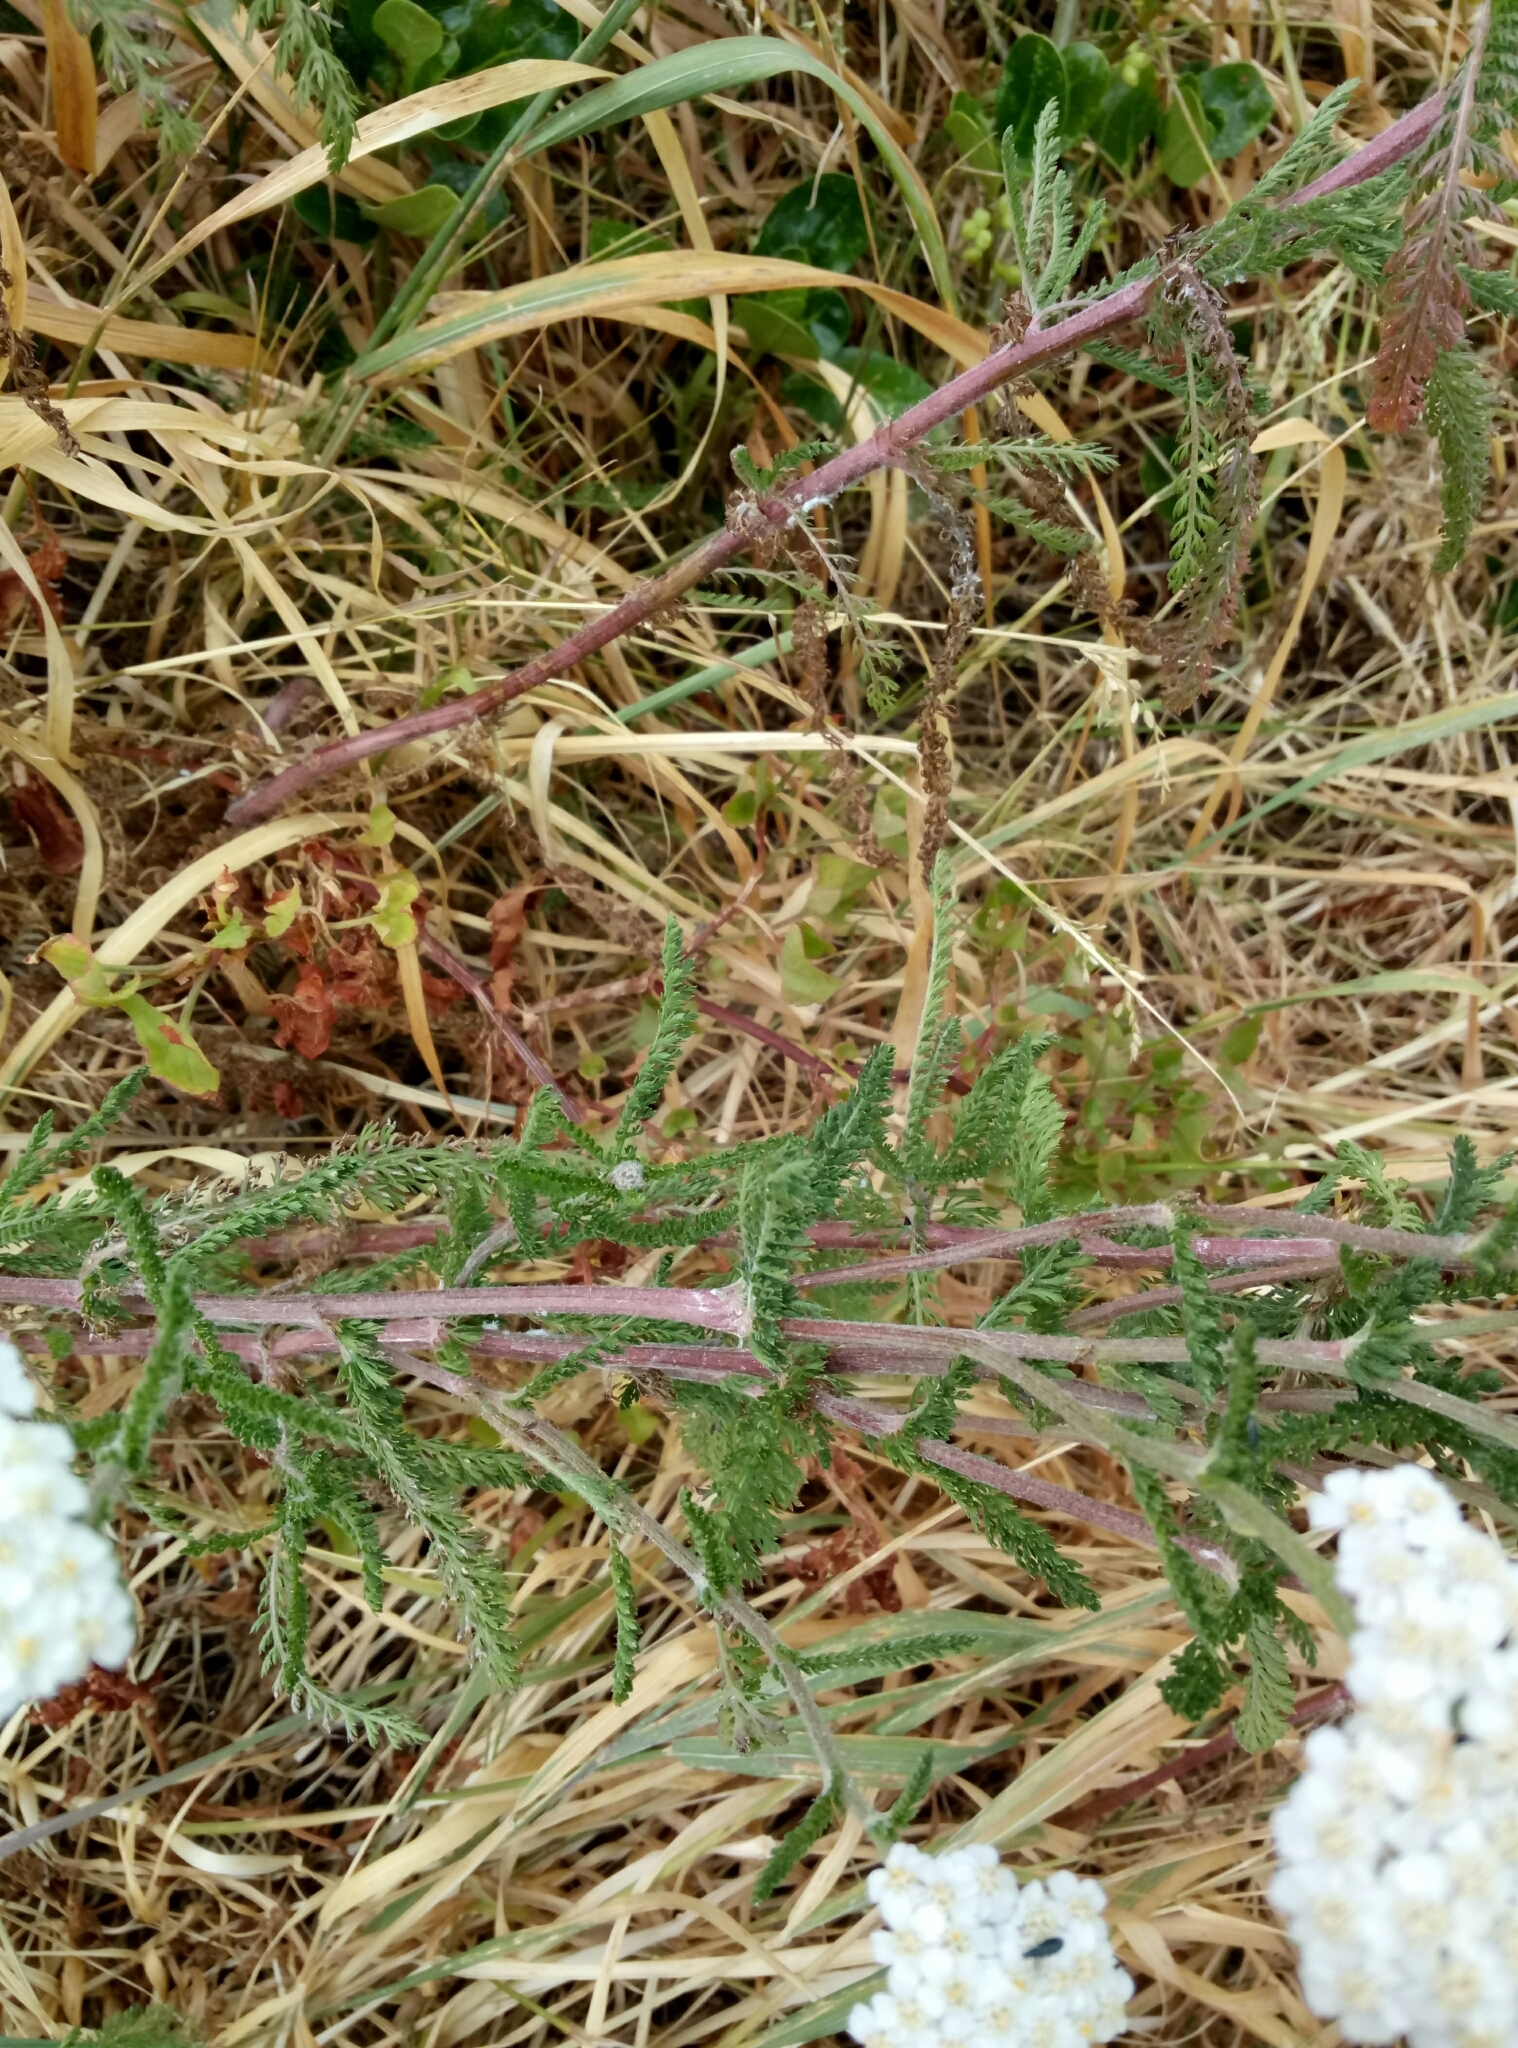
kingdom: Plantae
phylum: Tracheophyta
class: Magnoliopsida
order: Asterales
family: Asteraceae
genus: Achillea
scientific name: Achillea millefolium
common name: Yarrow
